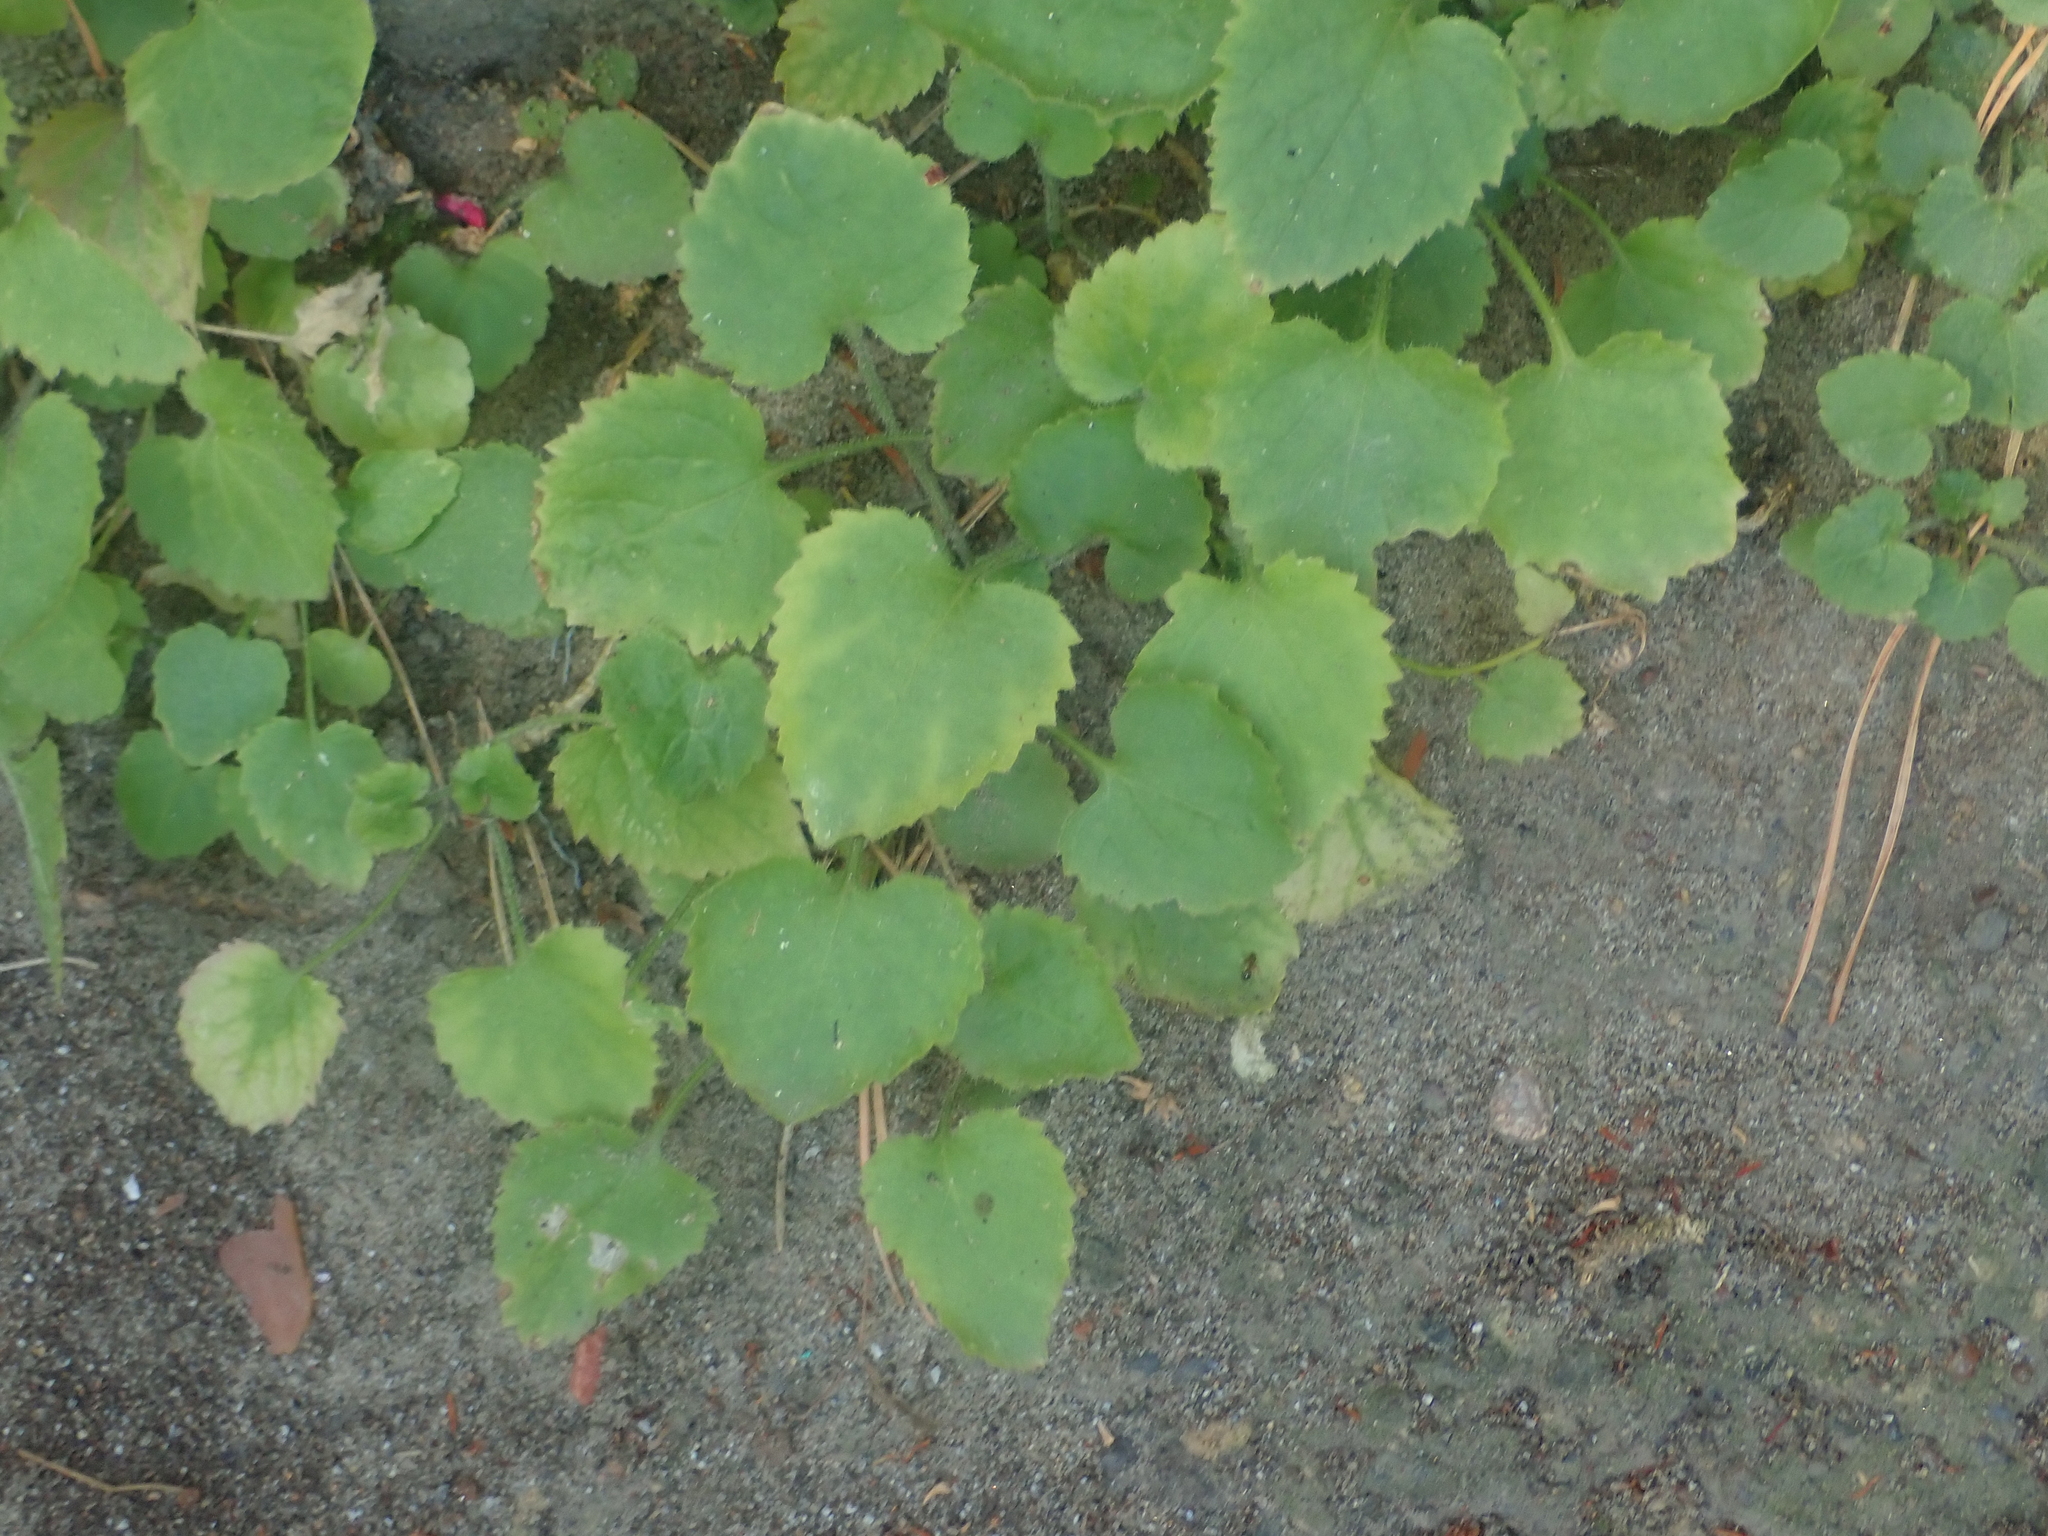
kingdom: Plantae
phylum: Tracheophyta
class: Magnoliopsida
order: Asterales
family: Campanulaceae
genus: Campanula
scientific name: Campanula poscharskyana
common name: Trailing bellflower
